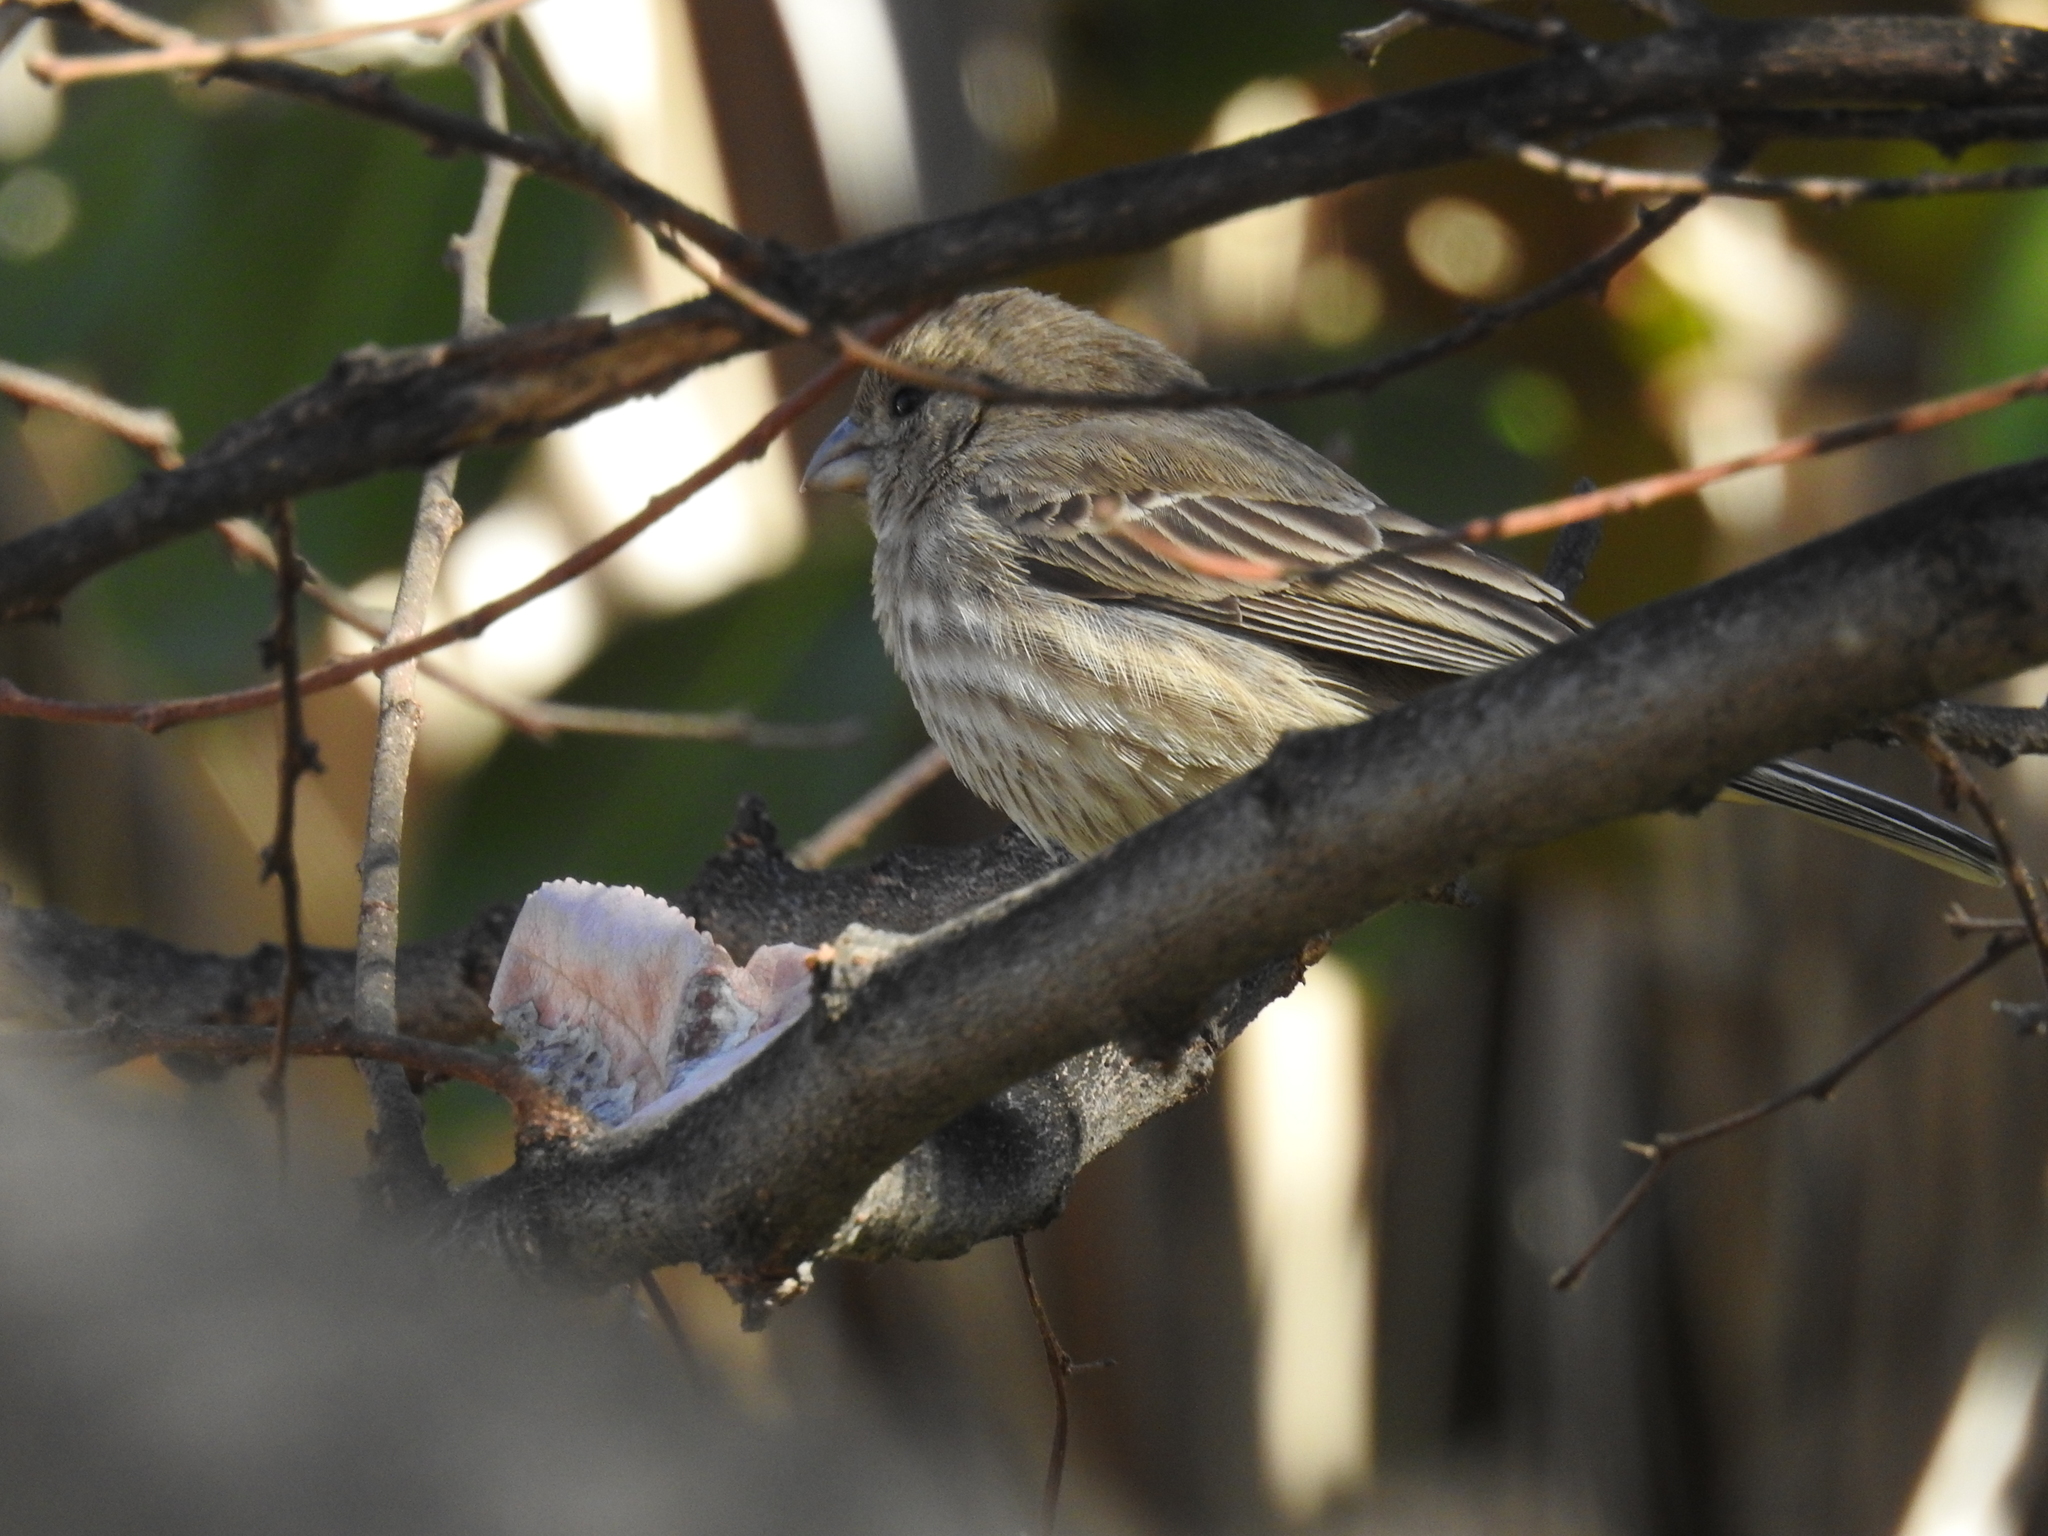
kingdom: Animalia
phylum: Chordata
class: Aves
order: Passeriformes
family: Fringillidae
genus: Haemorhous
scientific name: Haemorhous mexicanus
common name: House finch
